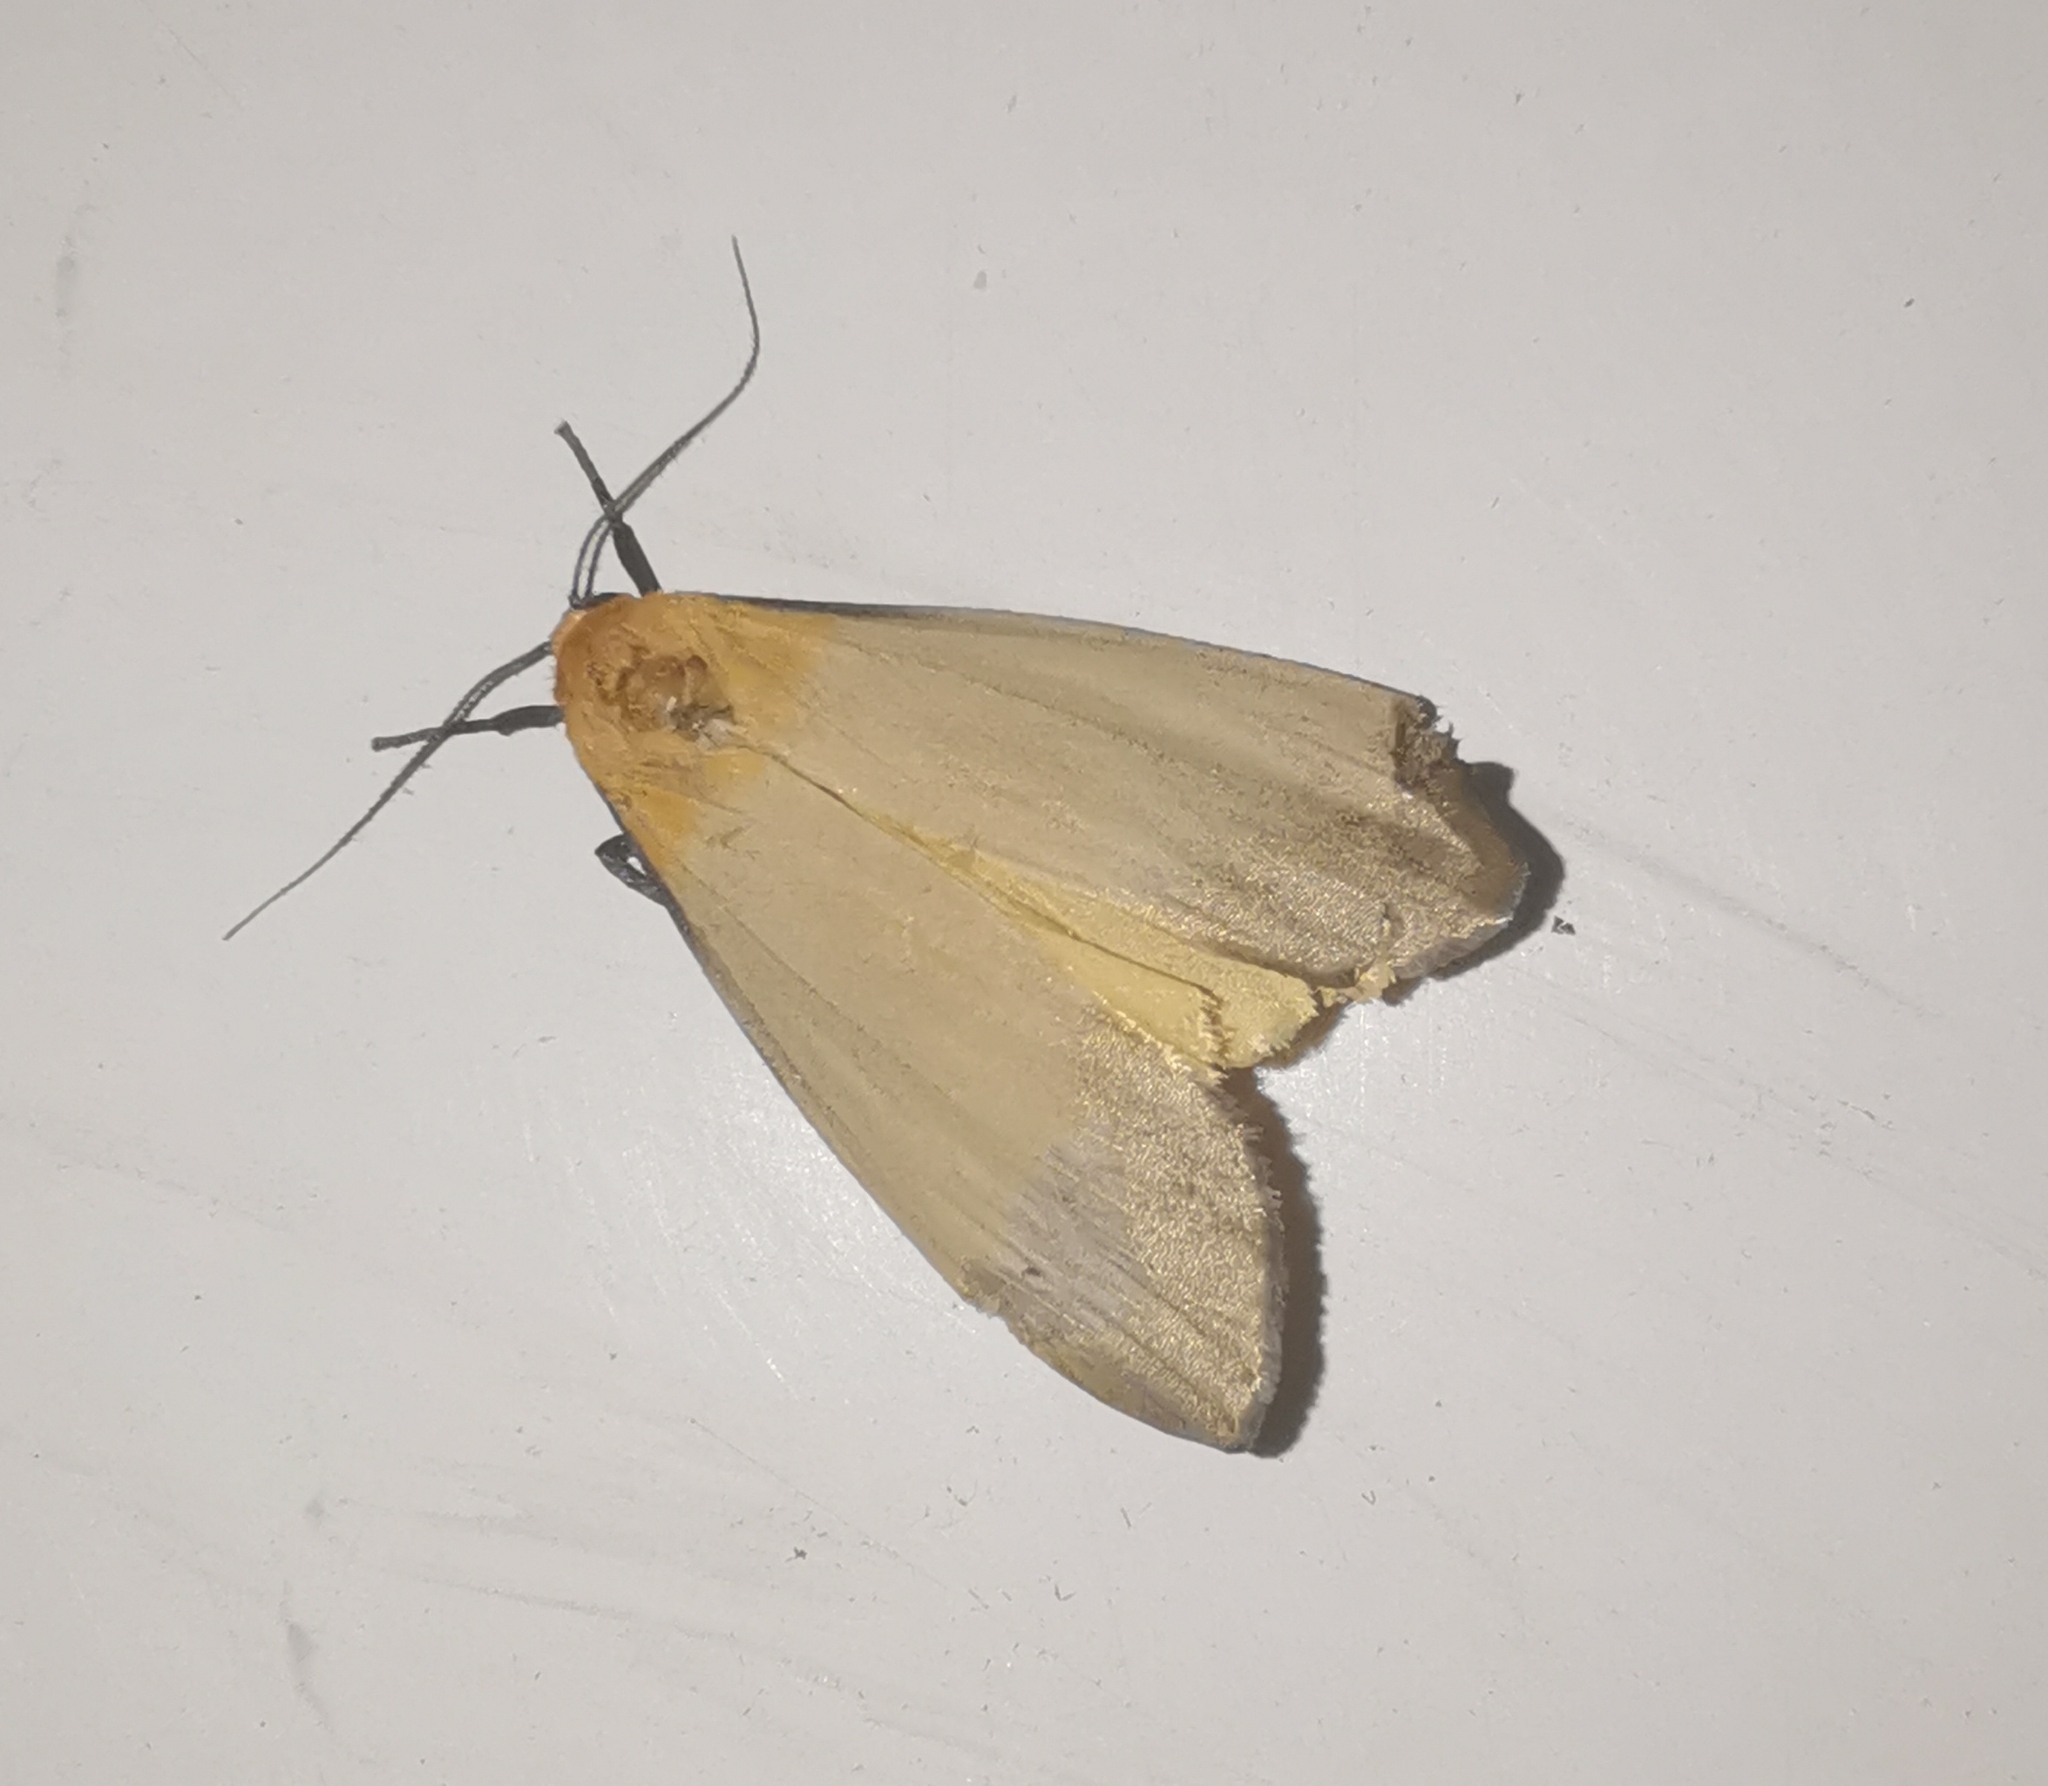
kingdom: Animalia
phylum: Arthropoda
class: Insecta
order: Lepidoptera
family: Erebidae
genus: Lithosia
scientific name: Lithosia quadra
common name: Four-spotted footman
